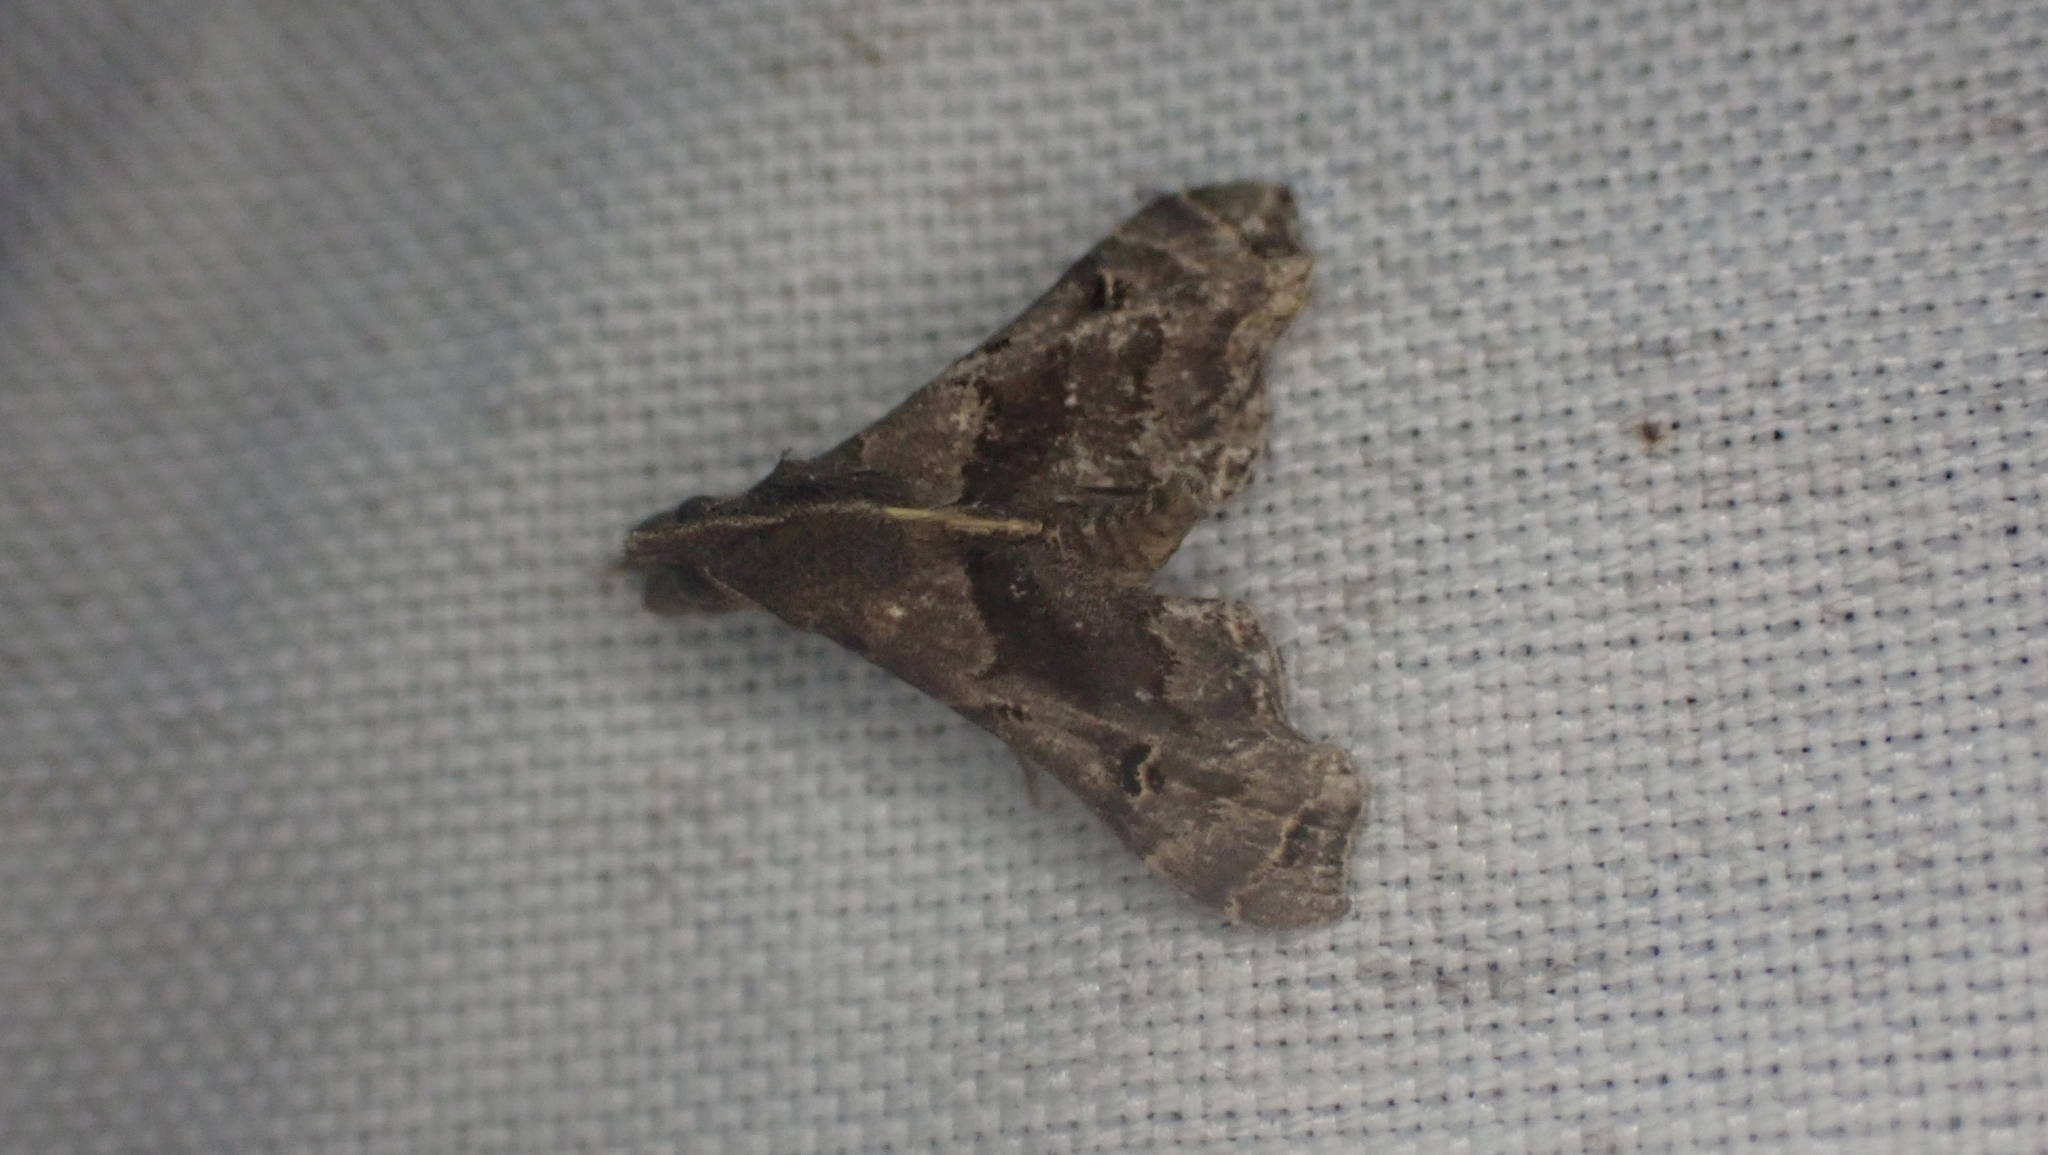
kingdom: Animalia
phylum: Arthropoda
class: Insecta
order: Lepidoptera
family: Erebidae
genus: Palthis
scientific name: Palthis asopialis
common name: Faint-spotted palthis moth
